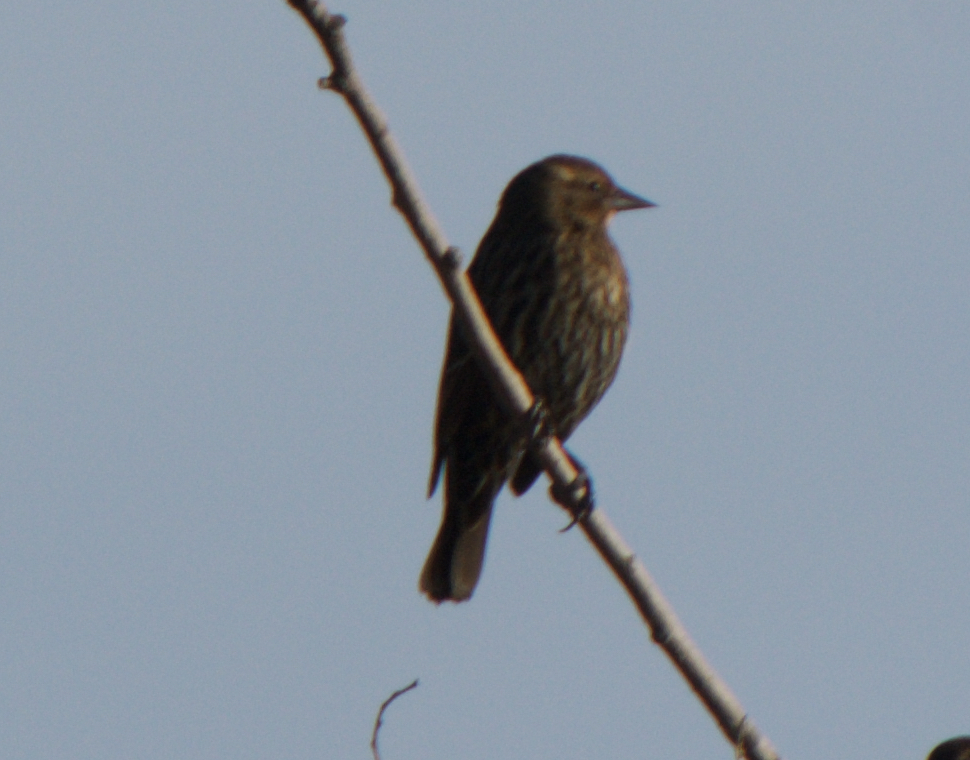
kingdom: Animalia
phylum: Chordata
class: Aves
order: Passeriformes
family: Icteridae
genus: Agelaius
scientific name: Agelaius phoeniceus
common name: Red-winged blackbird
